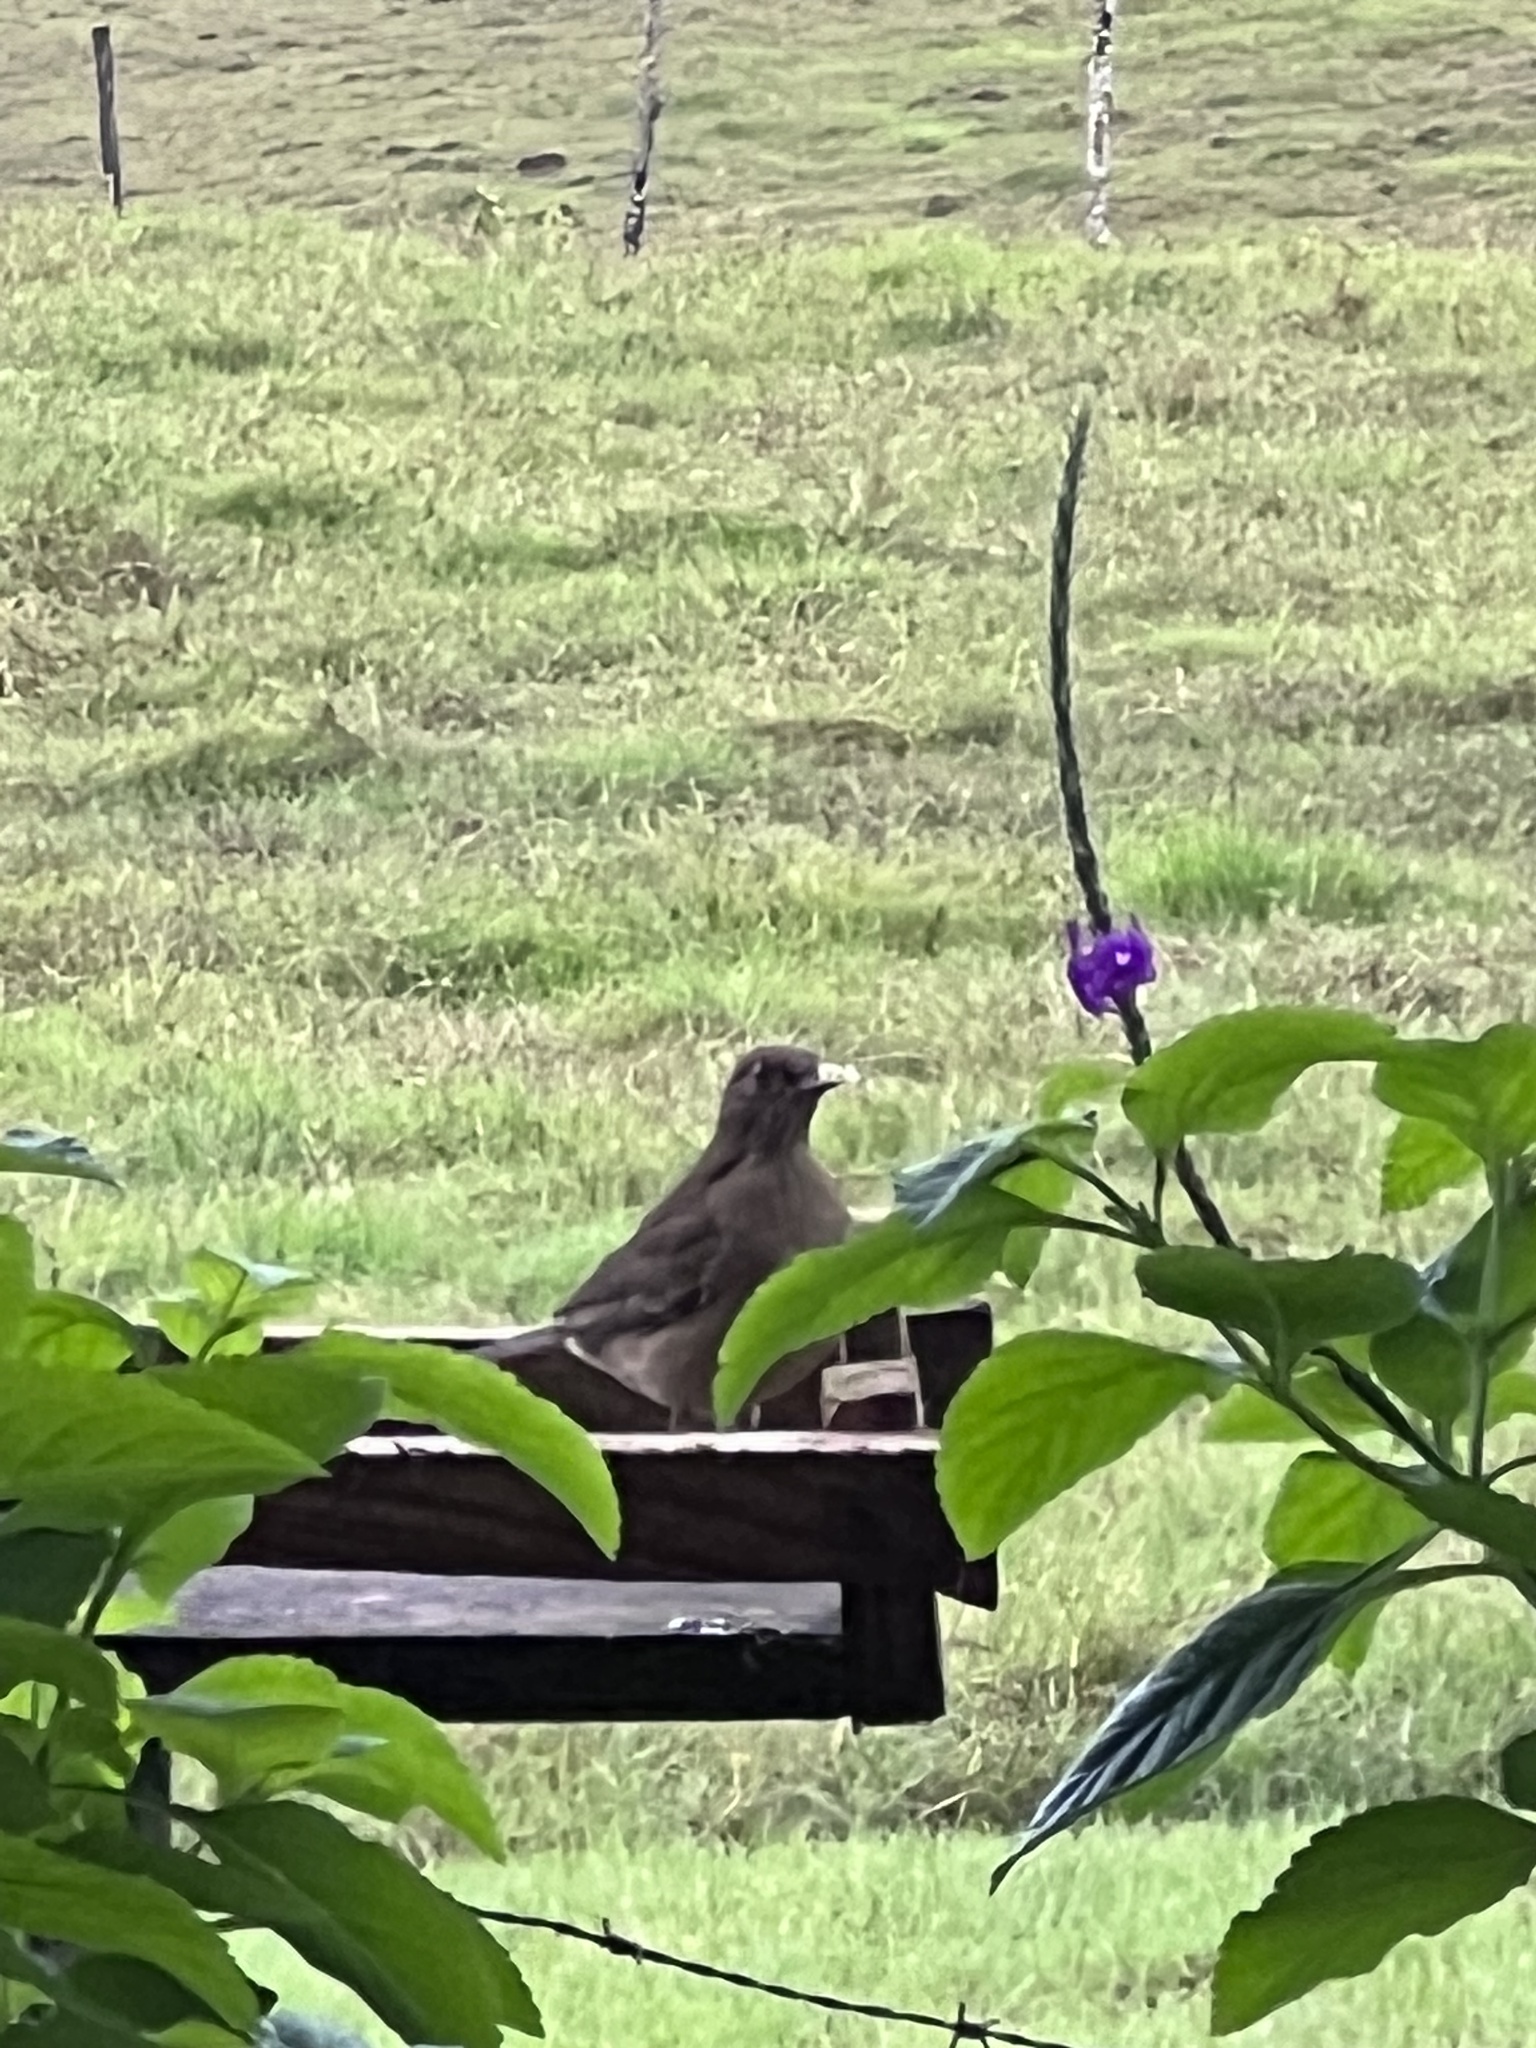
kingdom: Animalia
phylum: Chordata
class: Aves
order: Passeriformes
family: Turdidae
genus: Turdus
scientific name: Turdus grayi
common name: Clay-colored thrush
